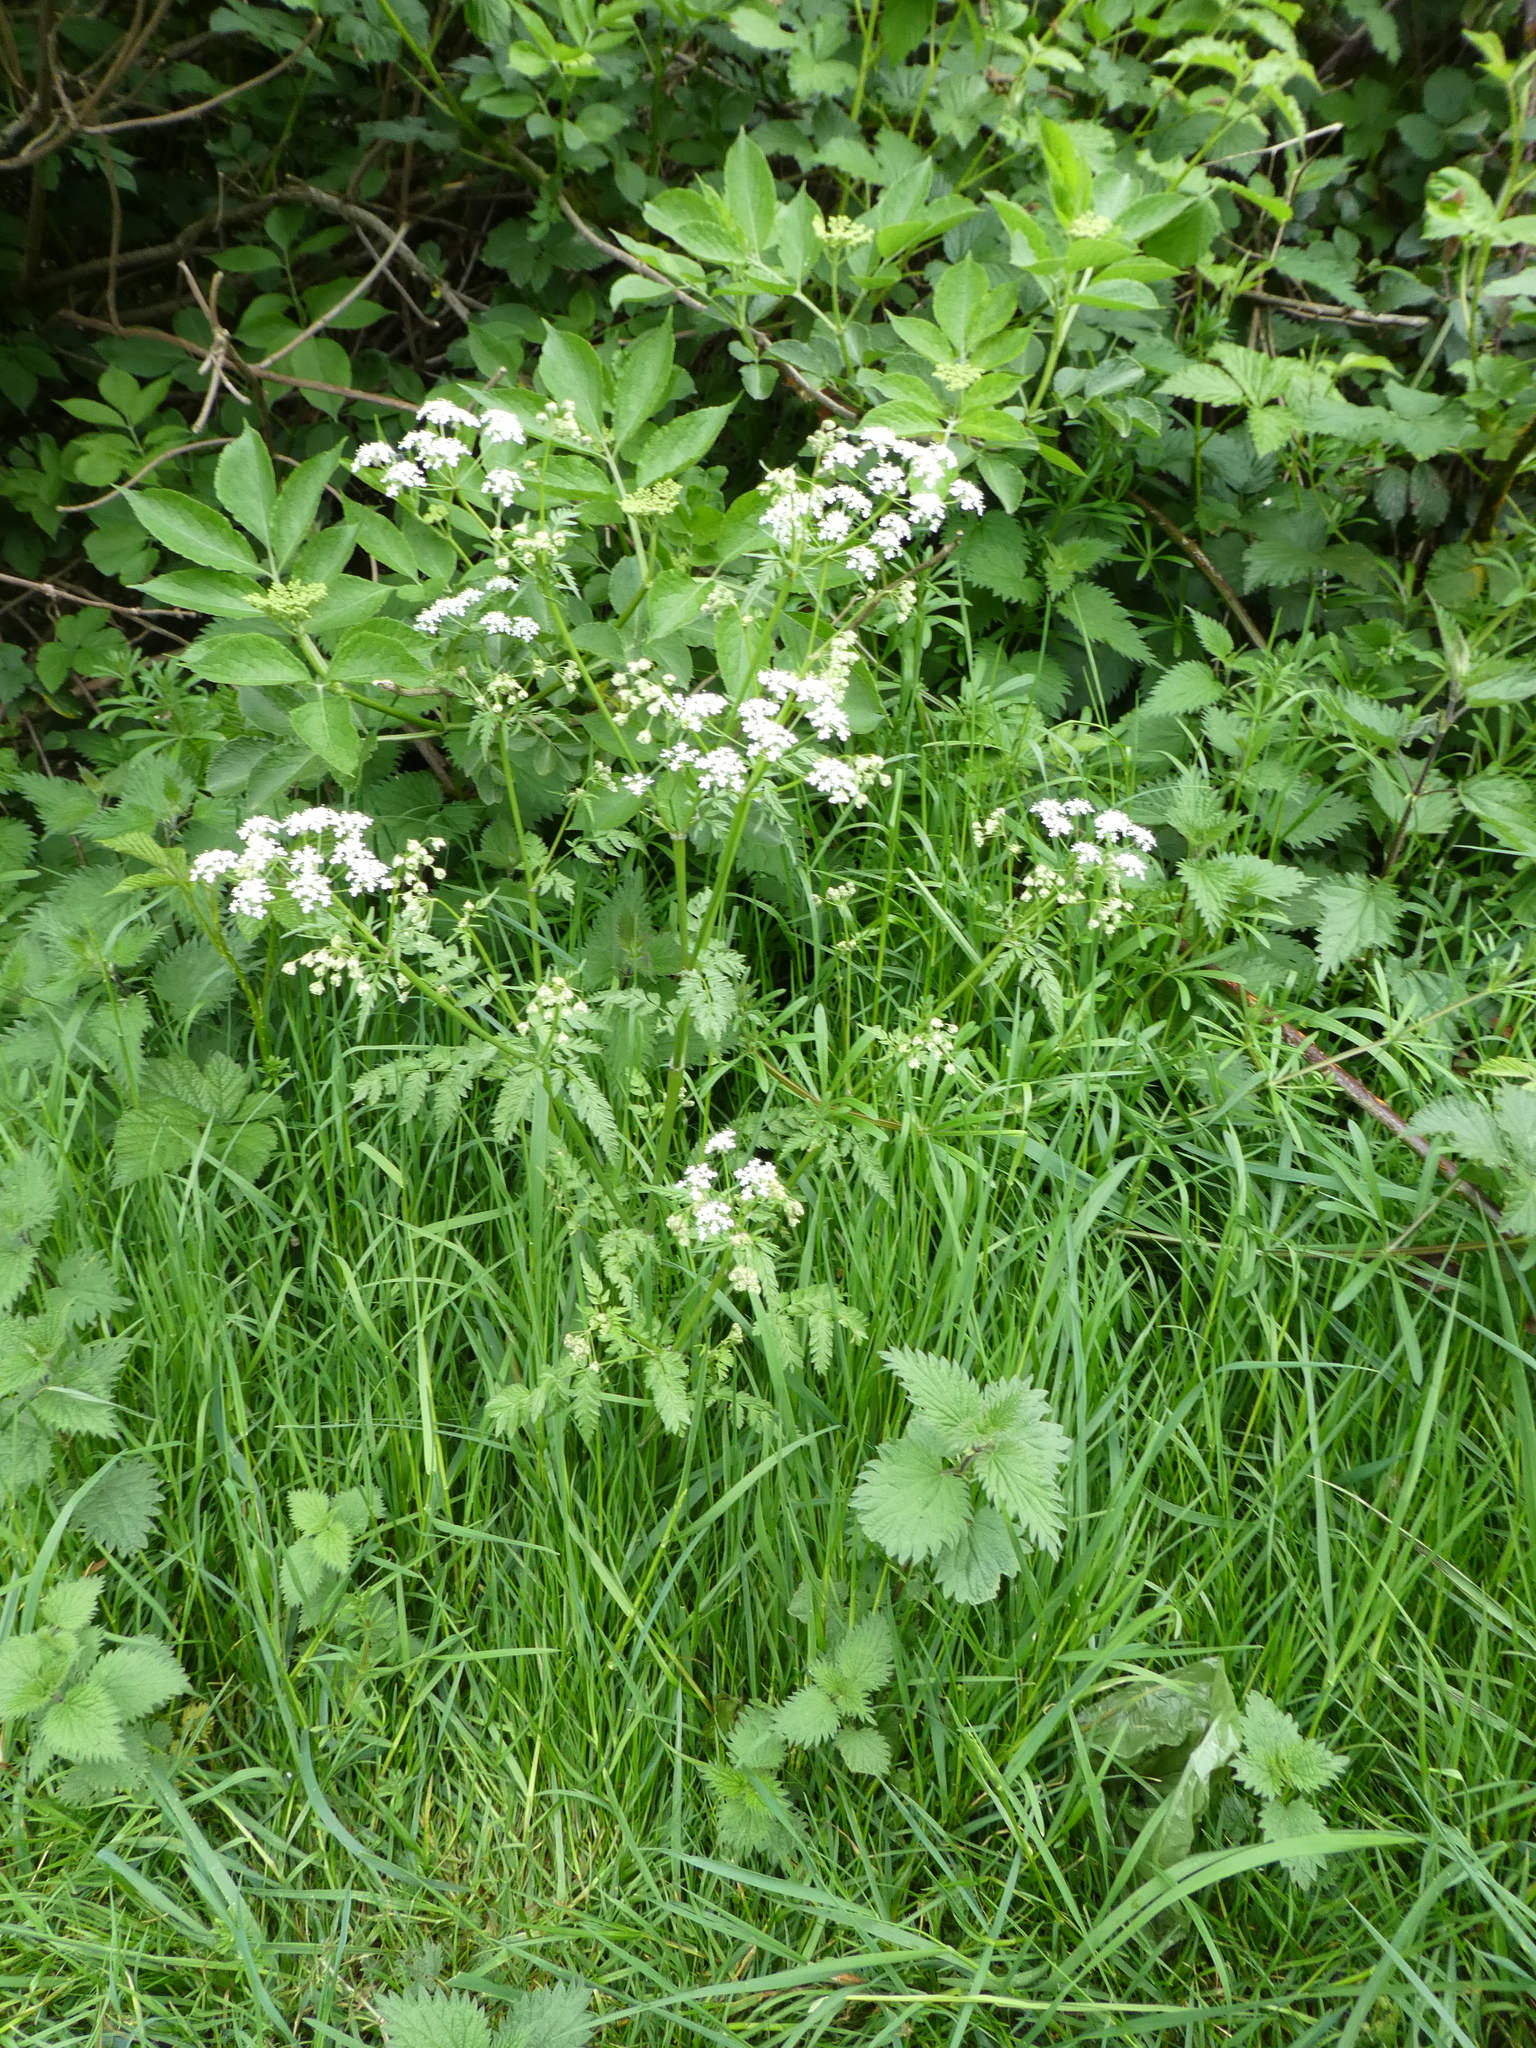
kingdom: Plantae
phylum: Tracheophyta
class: Magnoliopsida
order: Apiales
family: Apiaceae
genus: Anthriscus
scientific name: Anthriscus sylvestris
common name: Cow parsley
